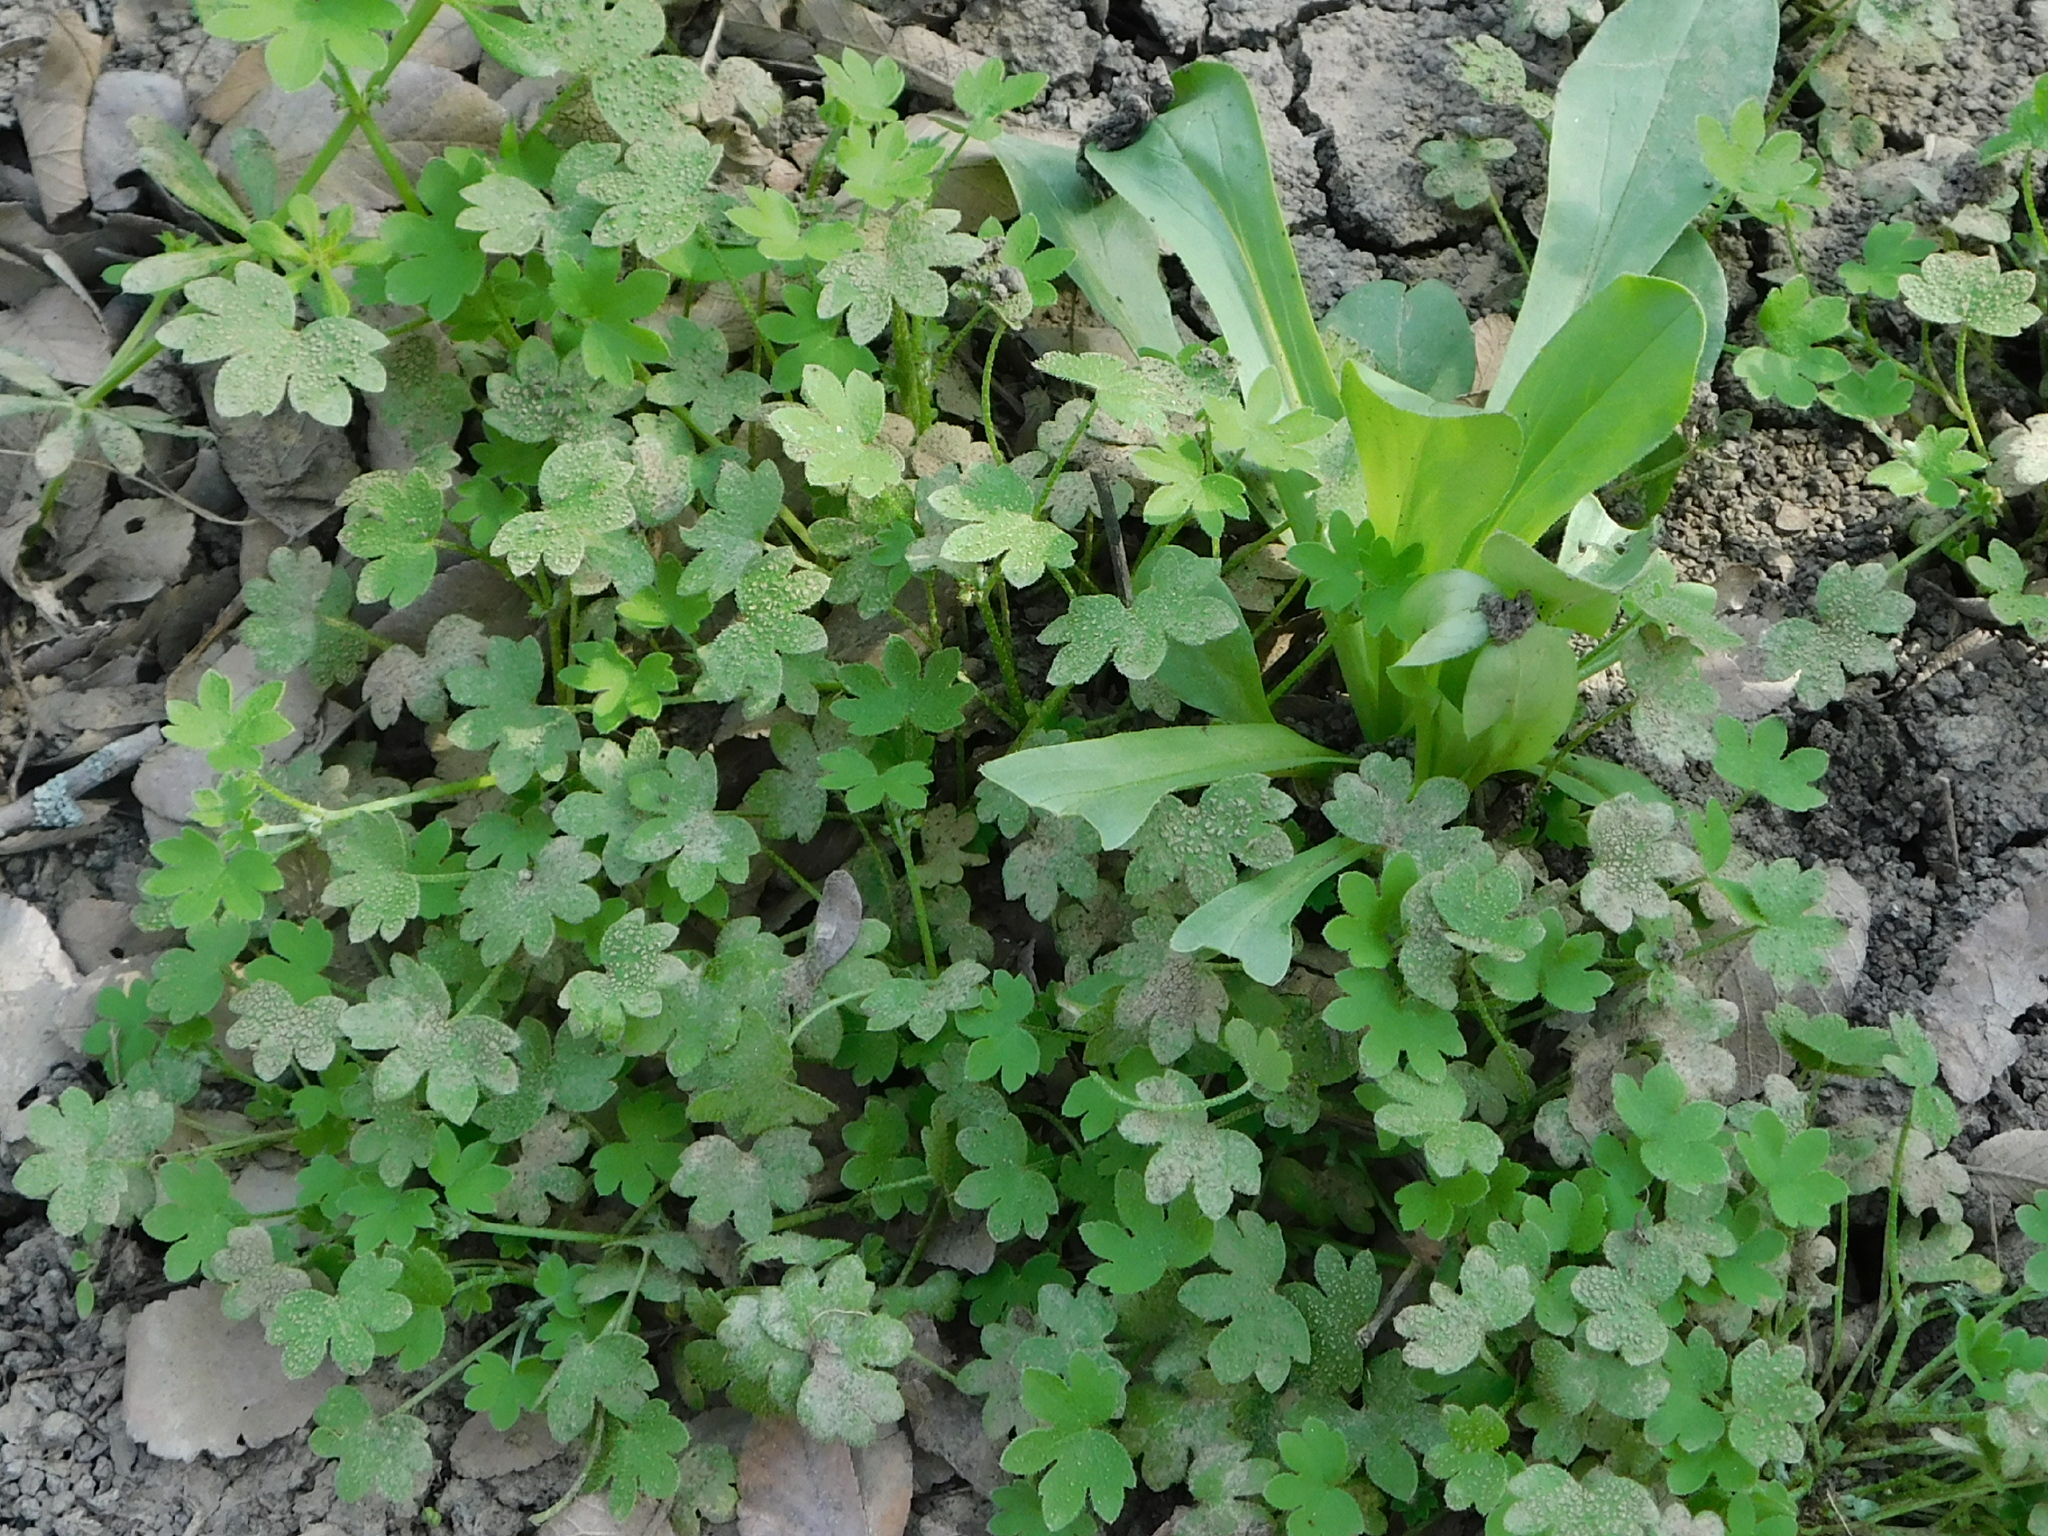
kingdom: Plantae
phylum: Tracheophyta
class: Magnoliopsida
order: Apiales
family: Apiaceae
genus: Bowlesia
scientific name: Bowlesia incana
